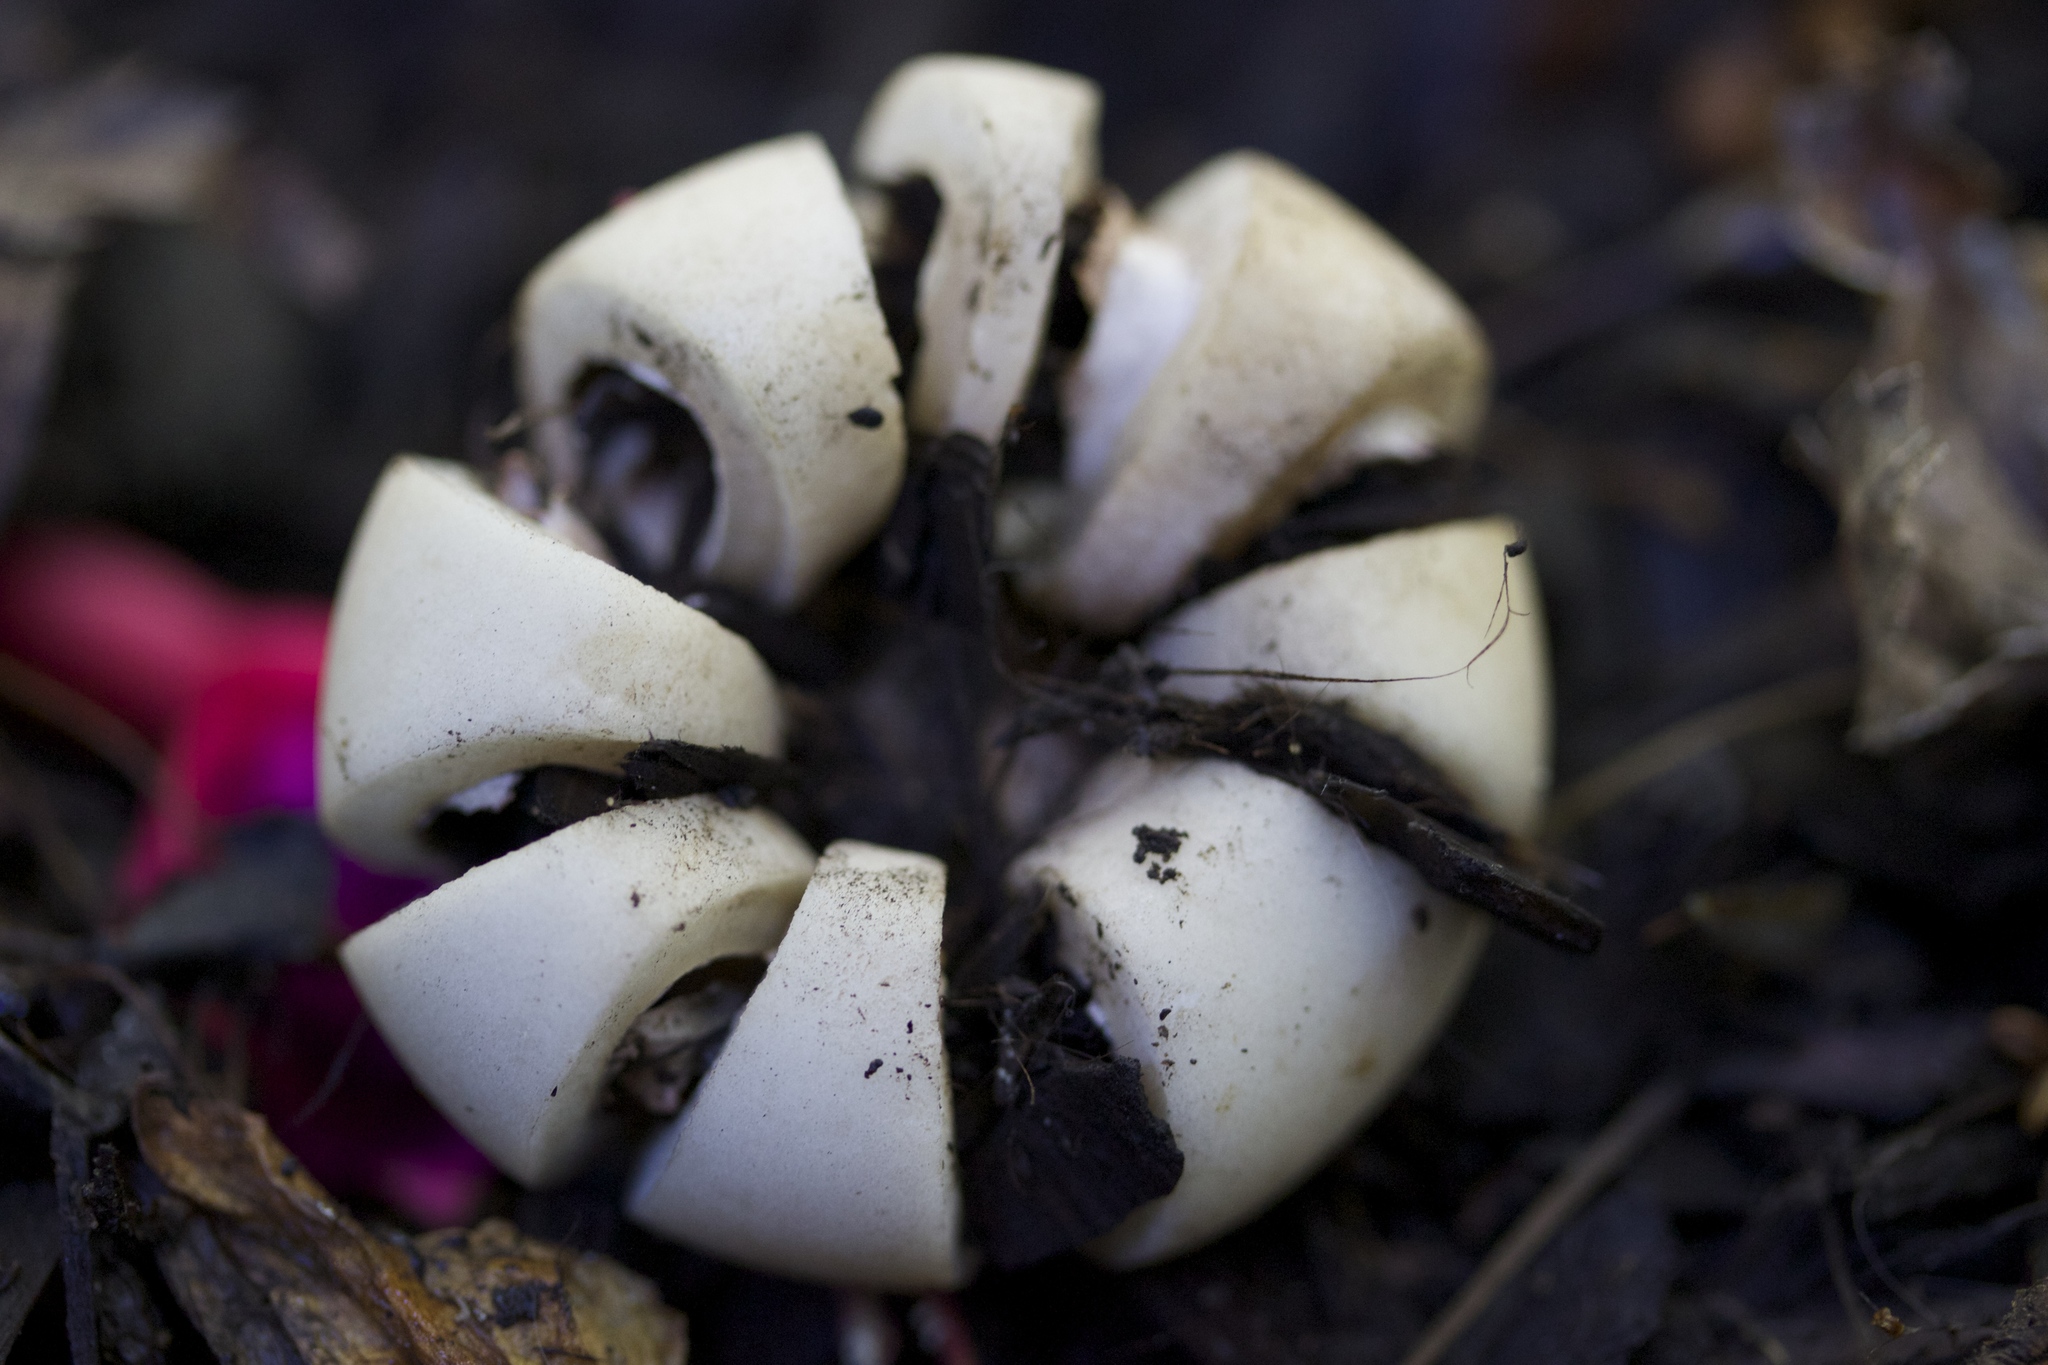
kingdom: Fungi
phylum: Basidiomycota
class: Agaricomycetes
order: Geastrales
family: Geastraceae
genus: Geastrum
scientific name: Geastrum saccatum
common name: Rounded earthstar
